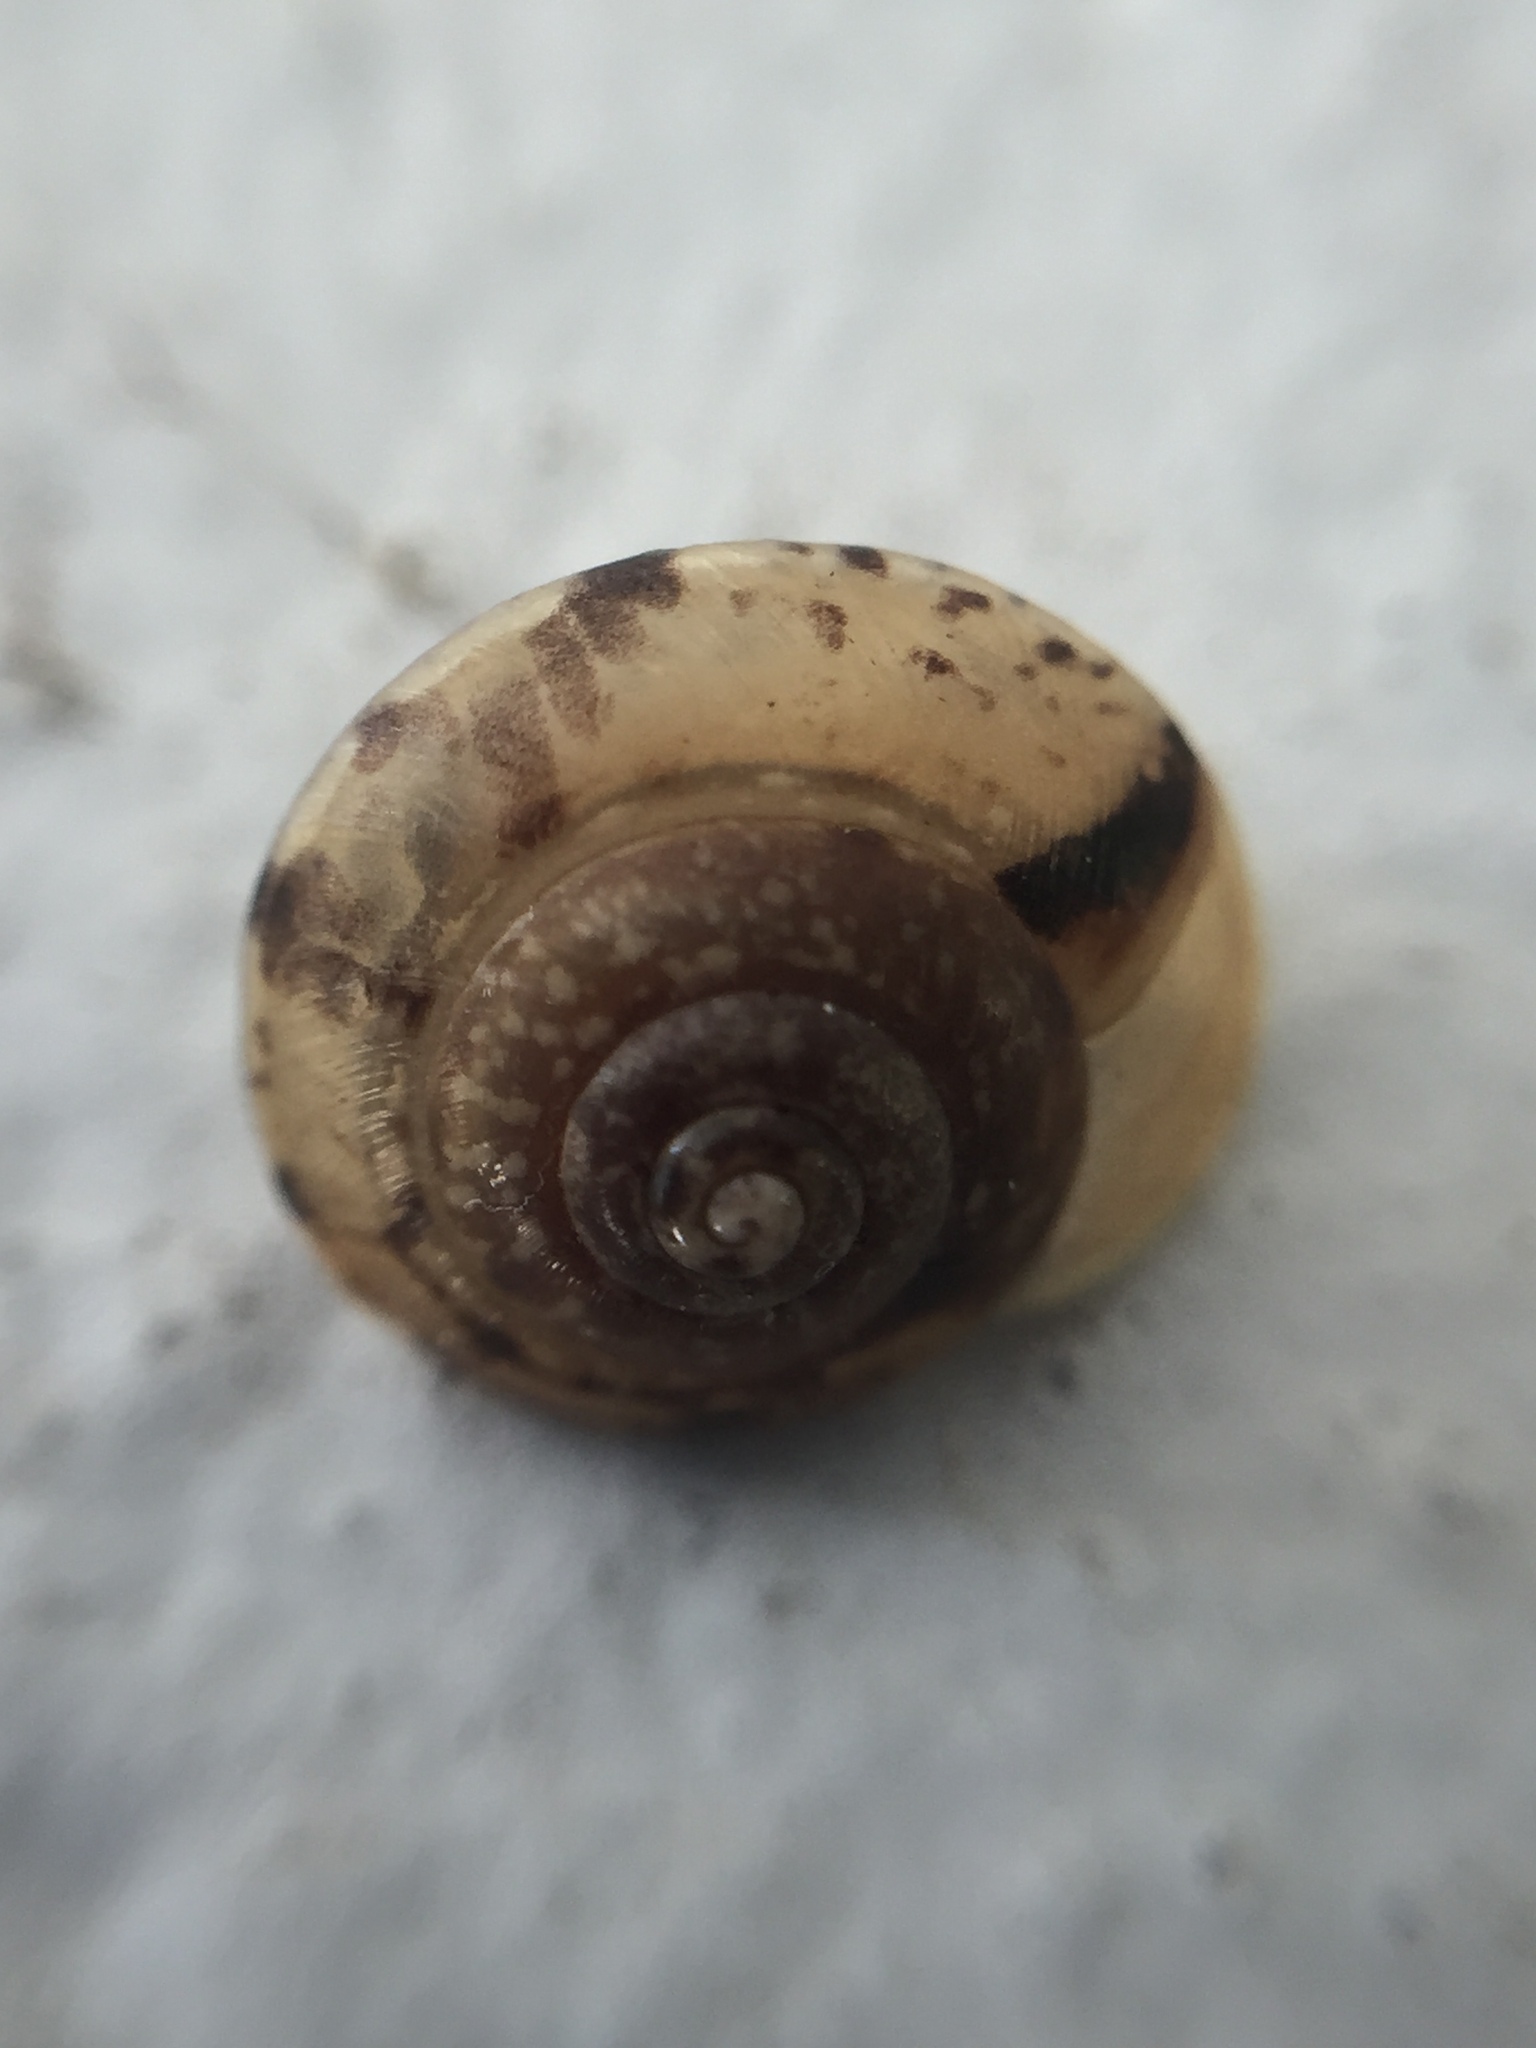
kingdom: Animalia
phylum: Mollusca
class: Gastropoda
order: Stylommatophora
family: Hygromiidae
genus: Hygromia
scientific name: Hygromia cinctella
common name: Girdled snail
